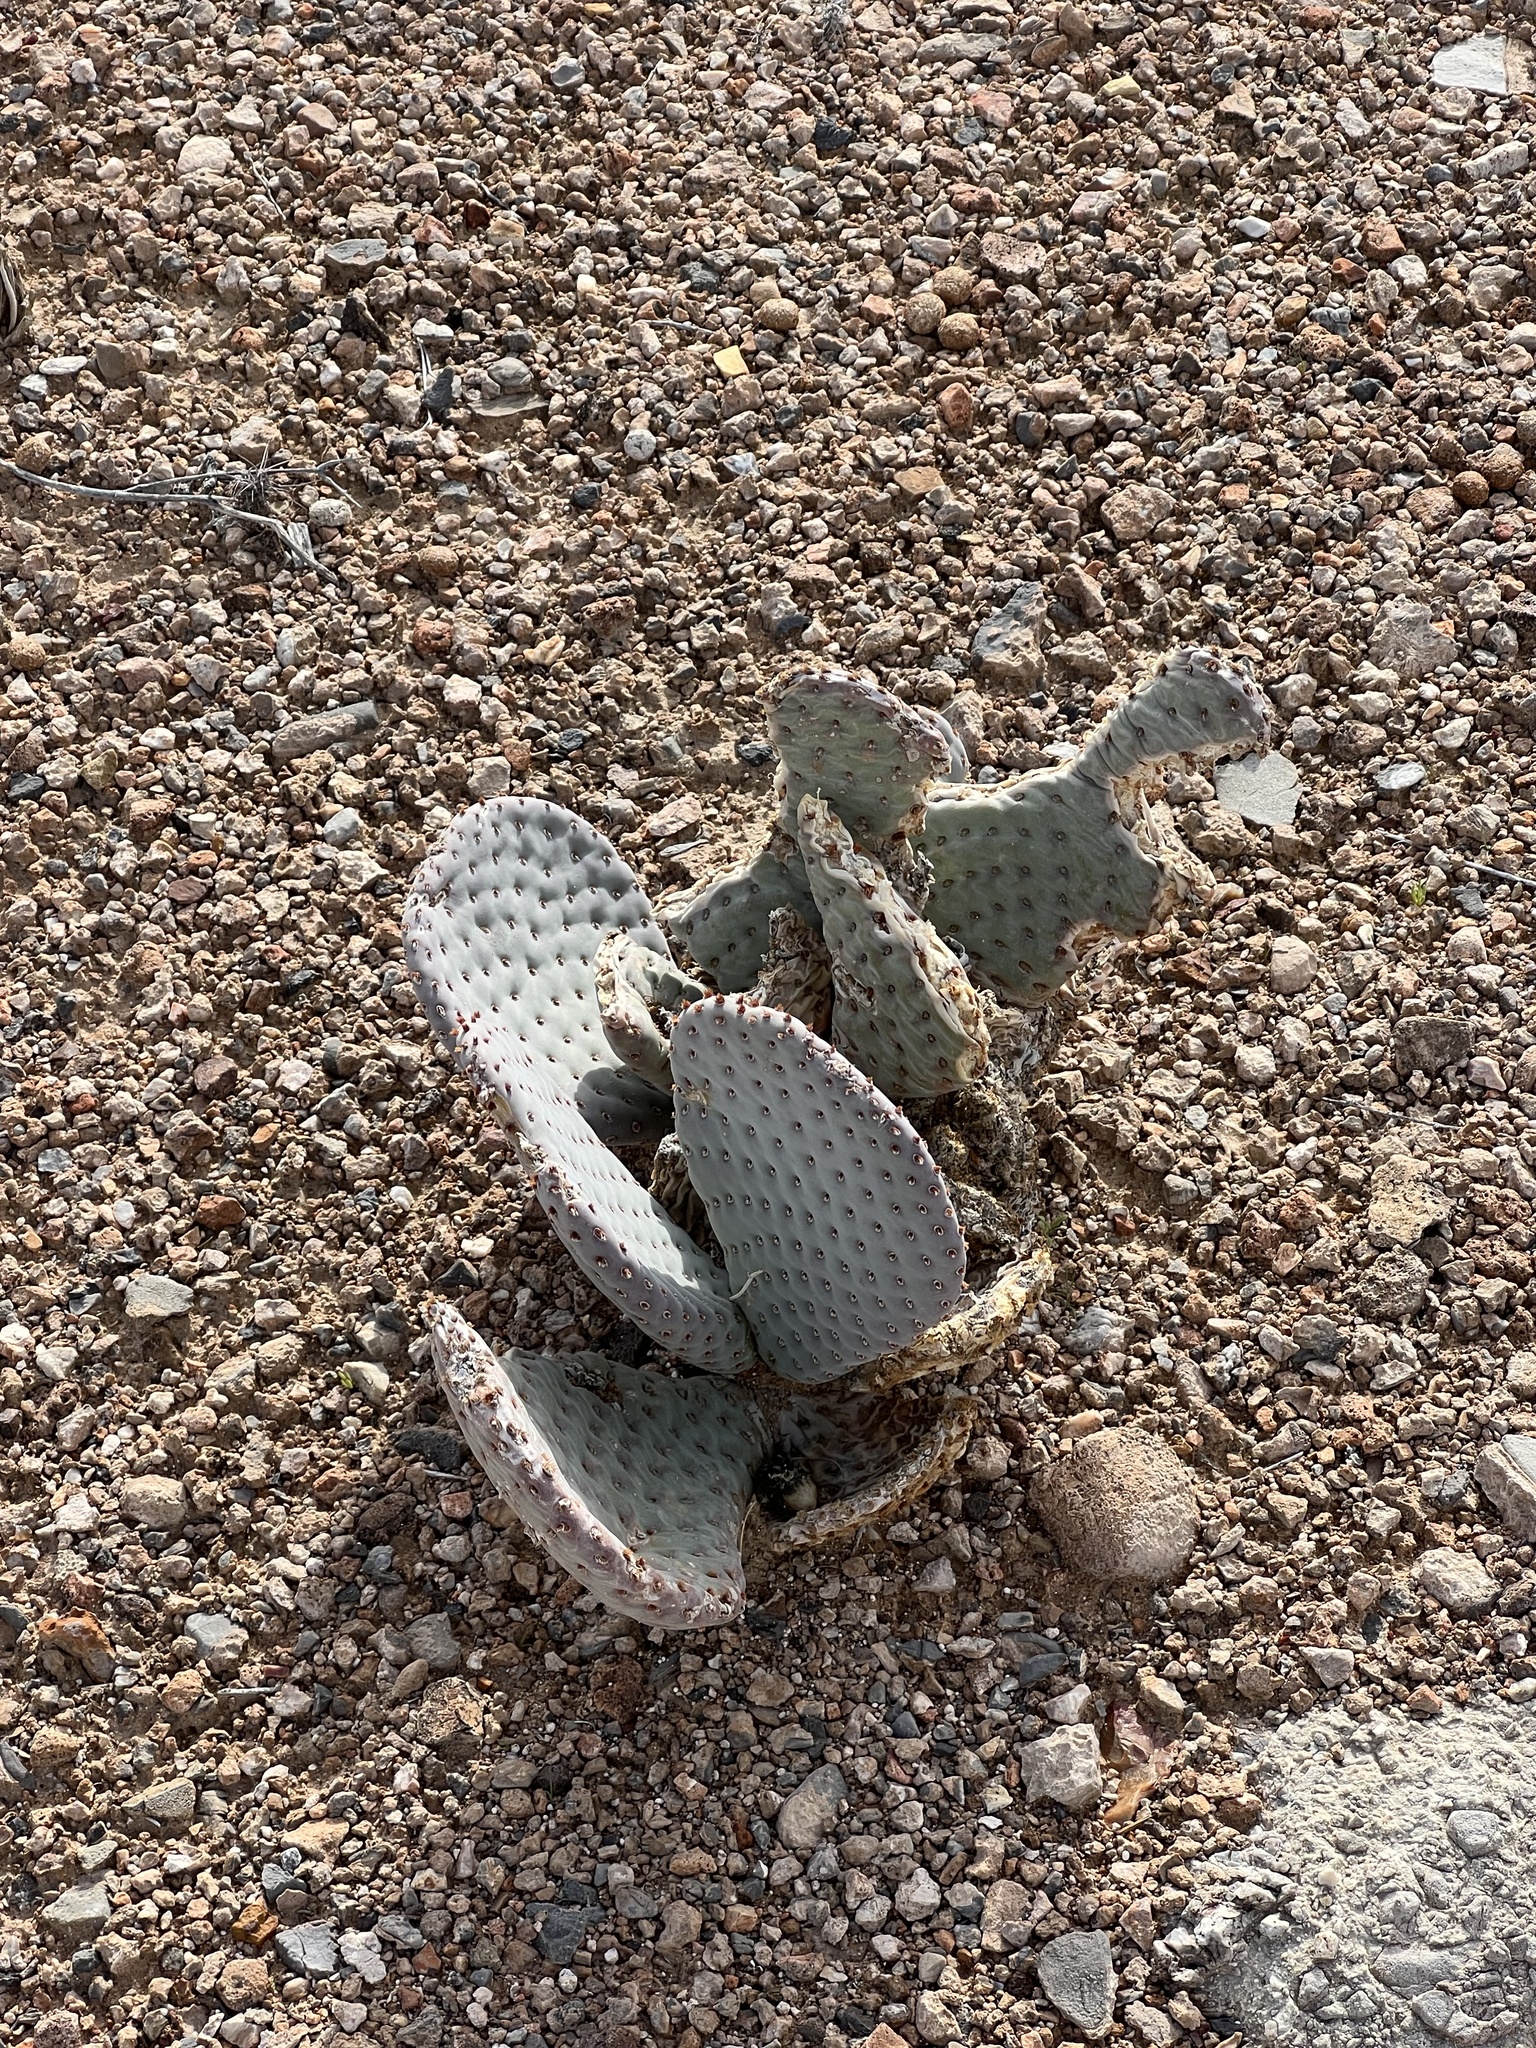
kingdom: Plantae
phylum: Tracheophyta
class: Magnoliopsida
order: Caryophyllales
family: Cactaceae
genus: Opuntia
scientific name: Opuntia basilaris
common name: Beavertail prickly-pear
